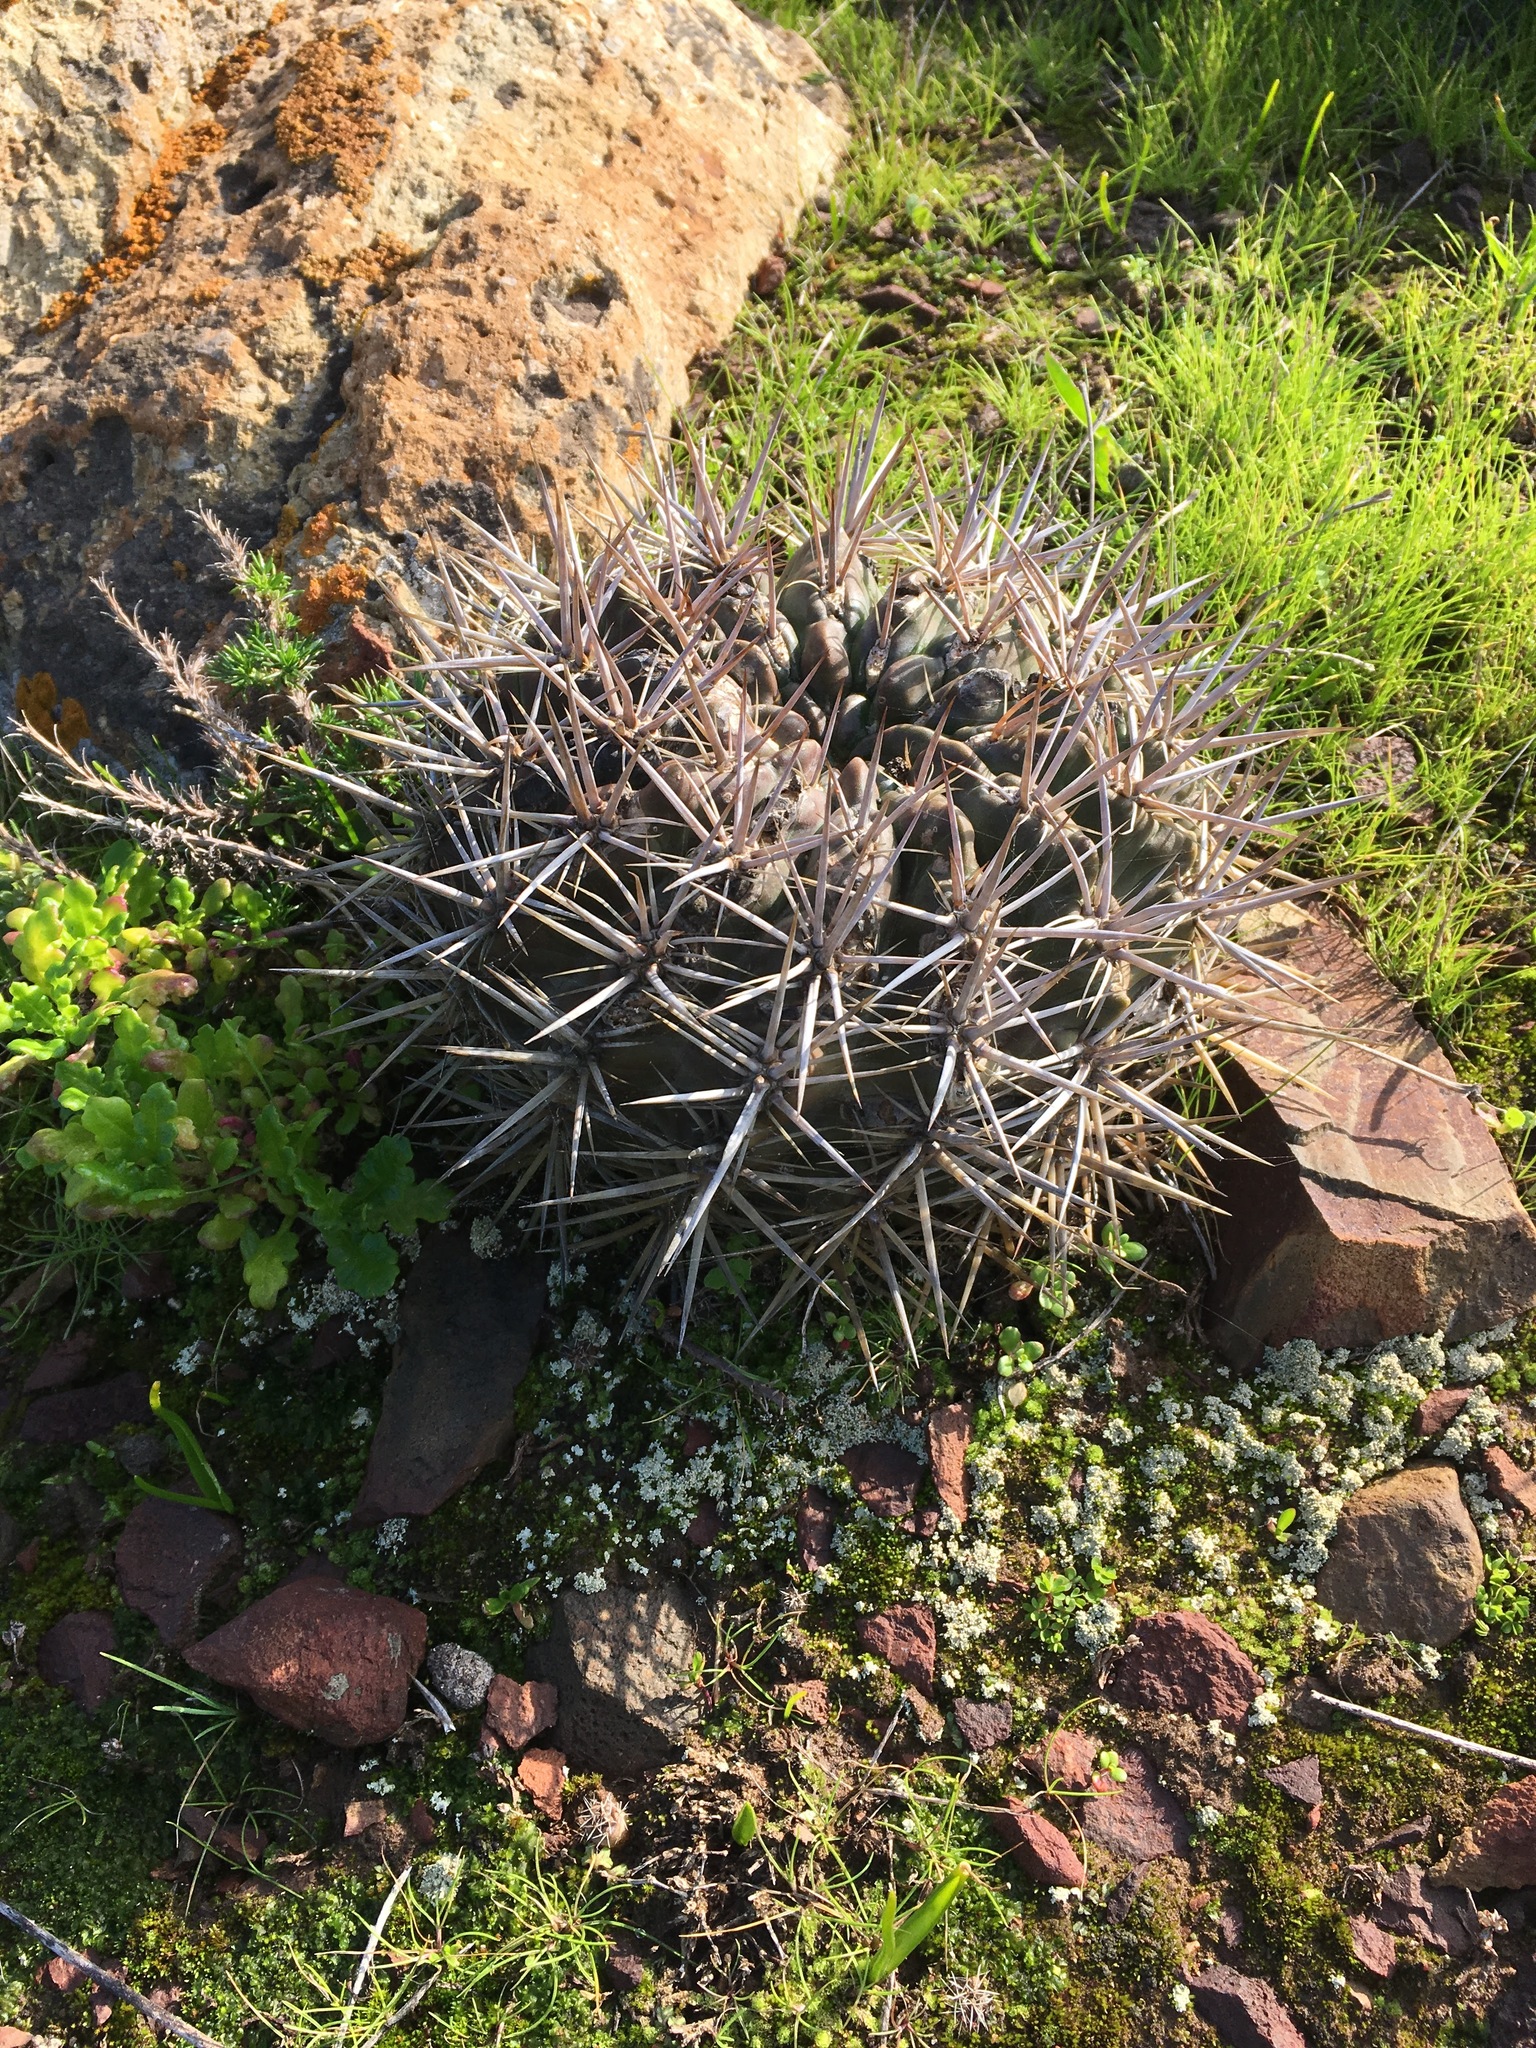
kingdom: Plantae
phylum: Tracheophyta
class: Magnoliopsida
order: Caryophyllales
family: Cactaceae
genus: Eriosyce
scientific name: Eriosyce
